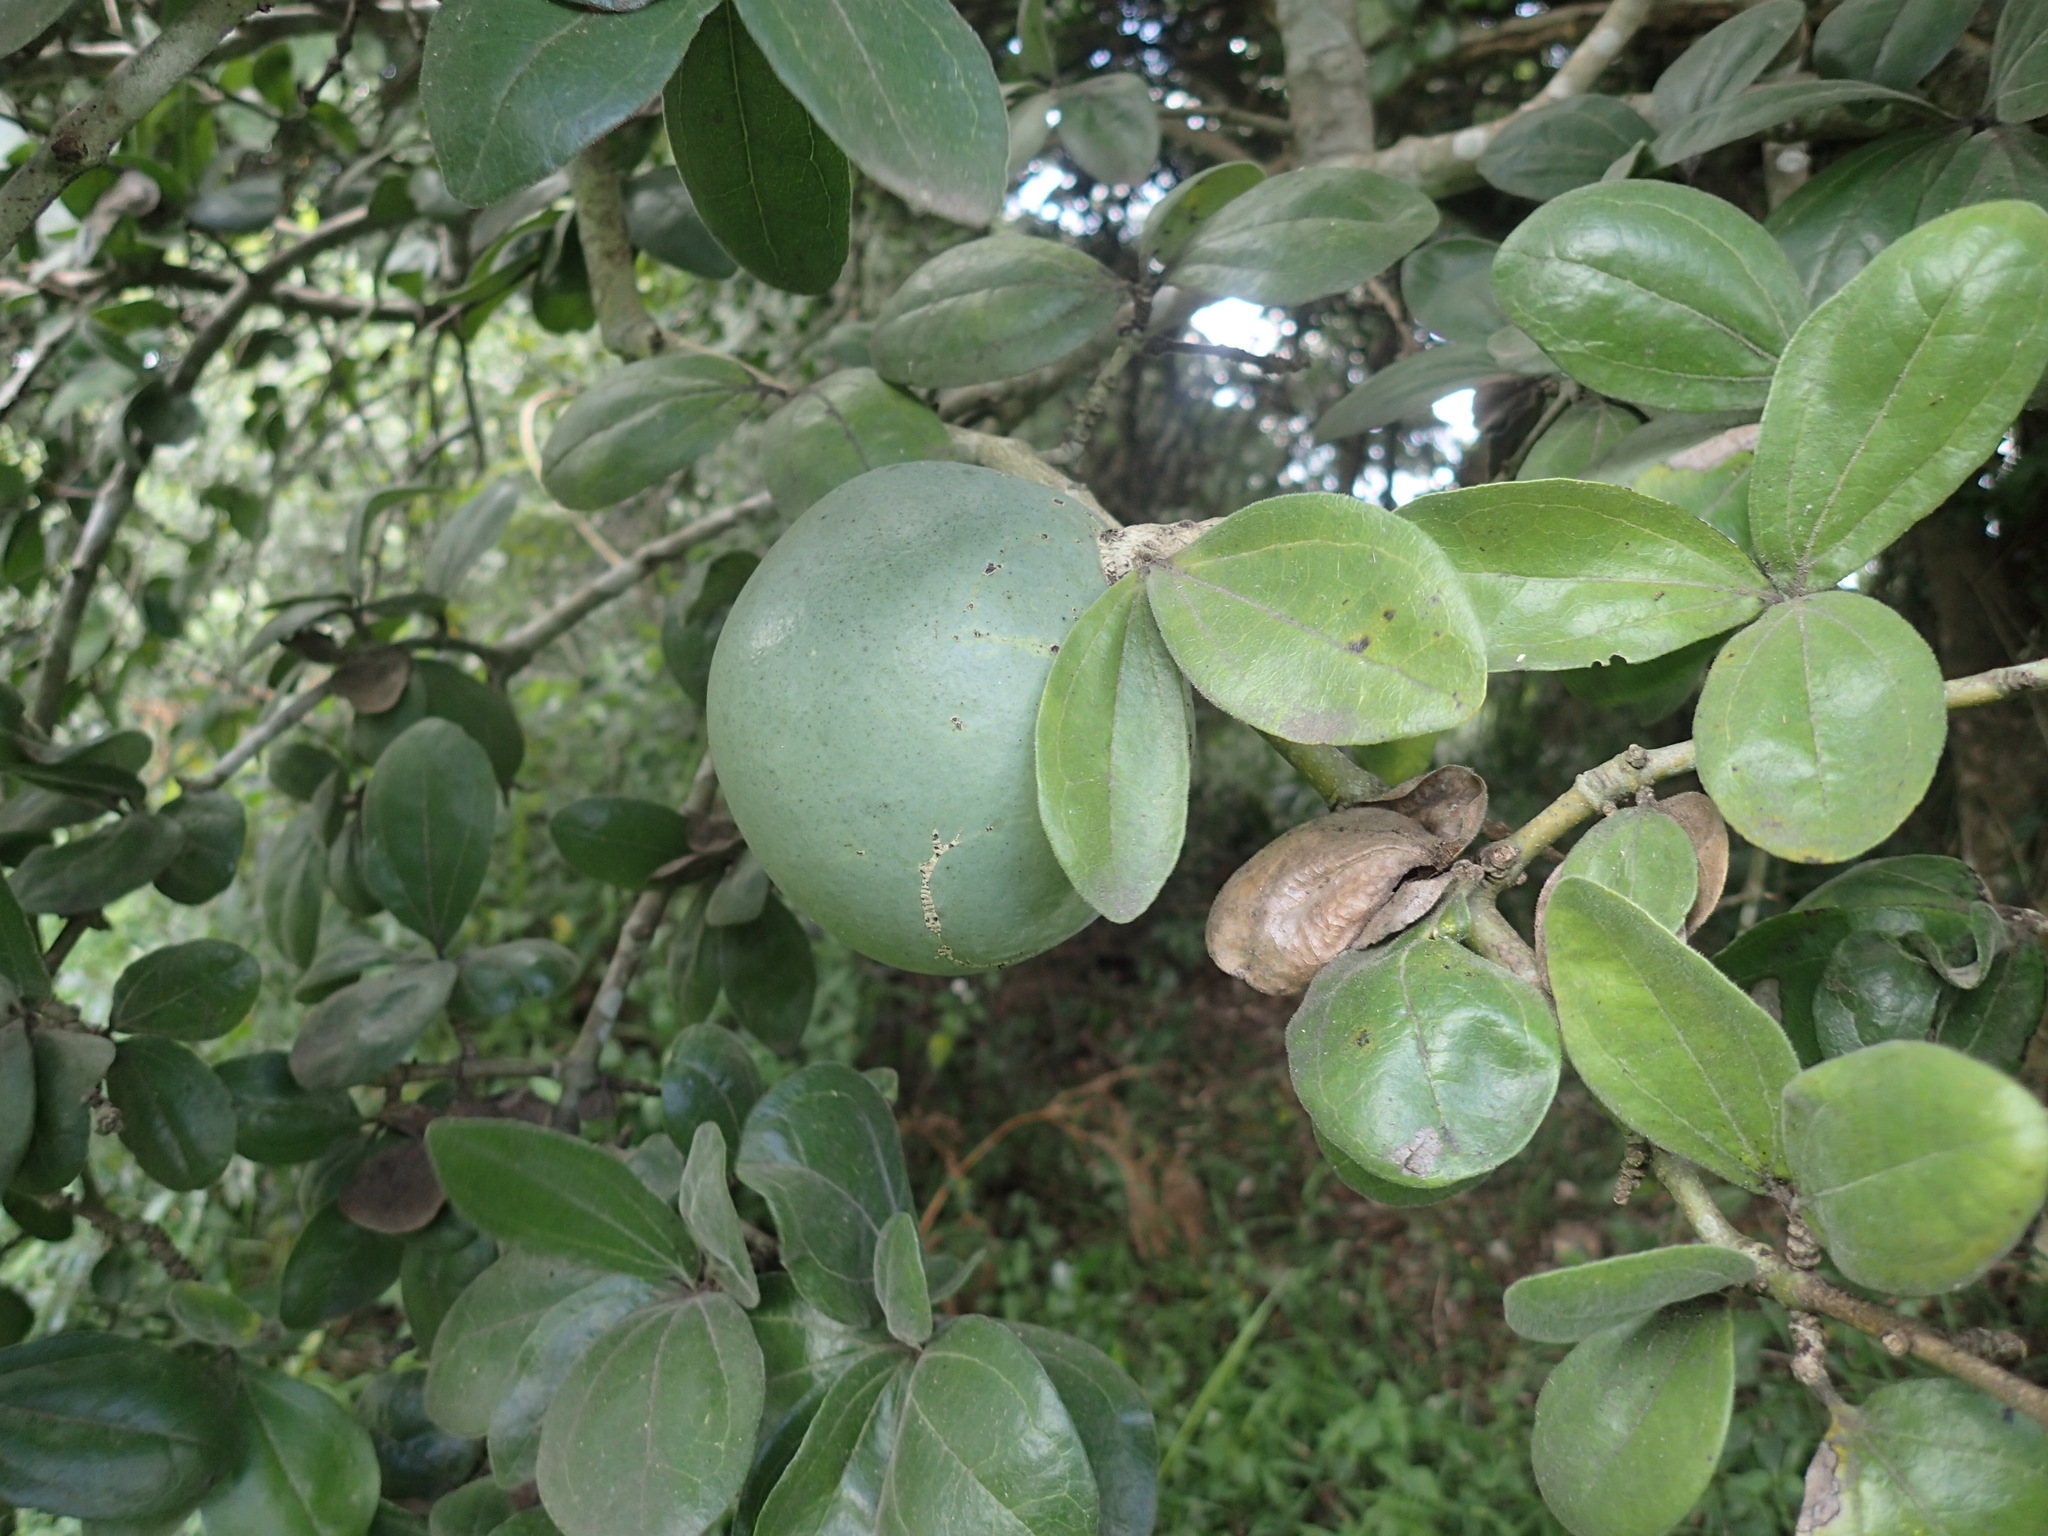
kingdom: Plantae
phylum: Tracheophyta
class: Magnoliopsida
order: Gentianales
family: Loganiaceae
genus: Strychnos
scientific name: Strychnos madagascariensis
